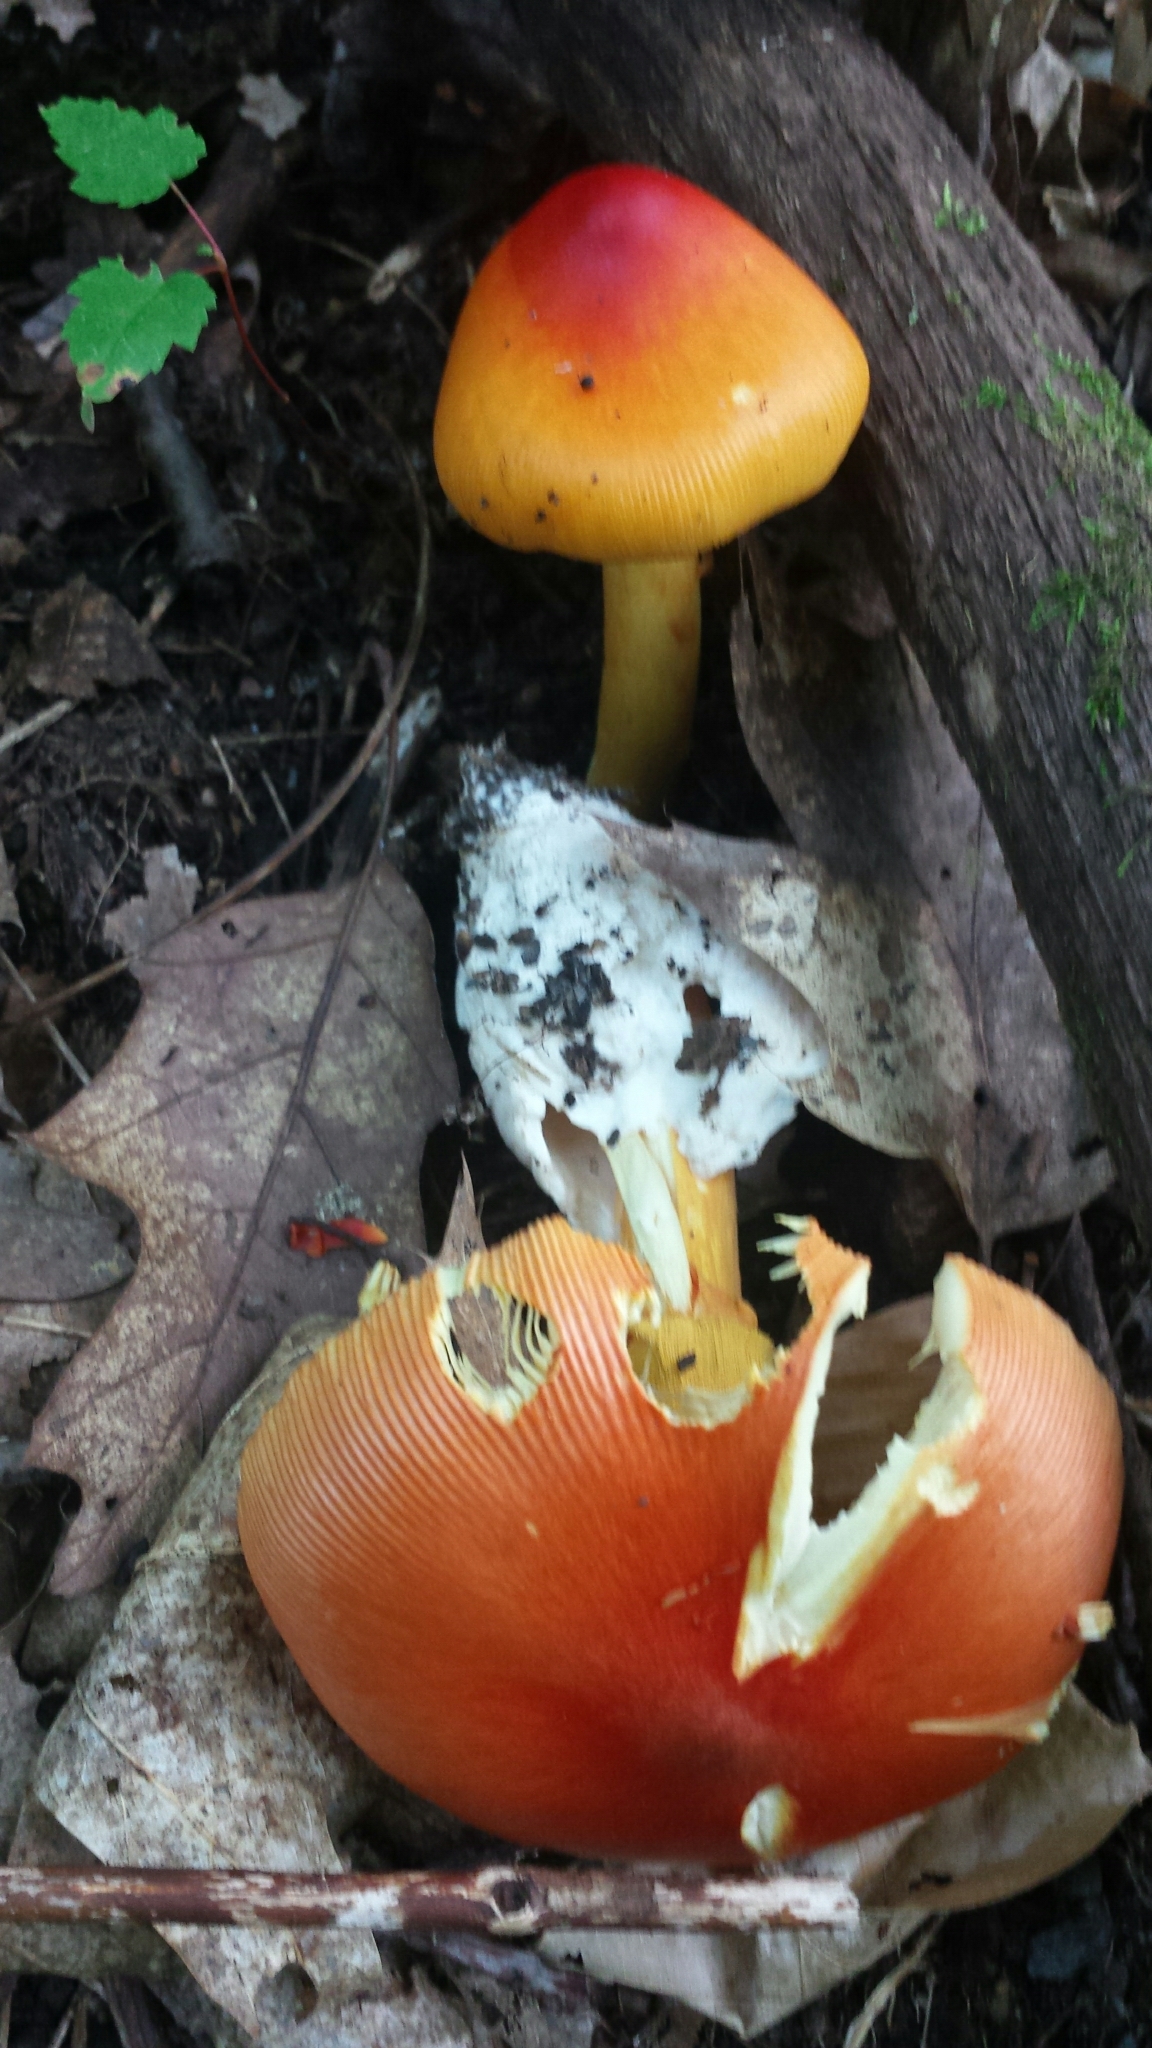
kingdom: Fungi
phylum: Basidiomycota
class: Agaricomycetes
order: Agaricales
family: Amanitaceae
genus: Amanita
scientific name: Amanita jacksonii
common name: Jackson's slender caesar
